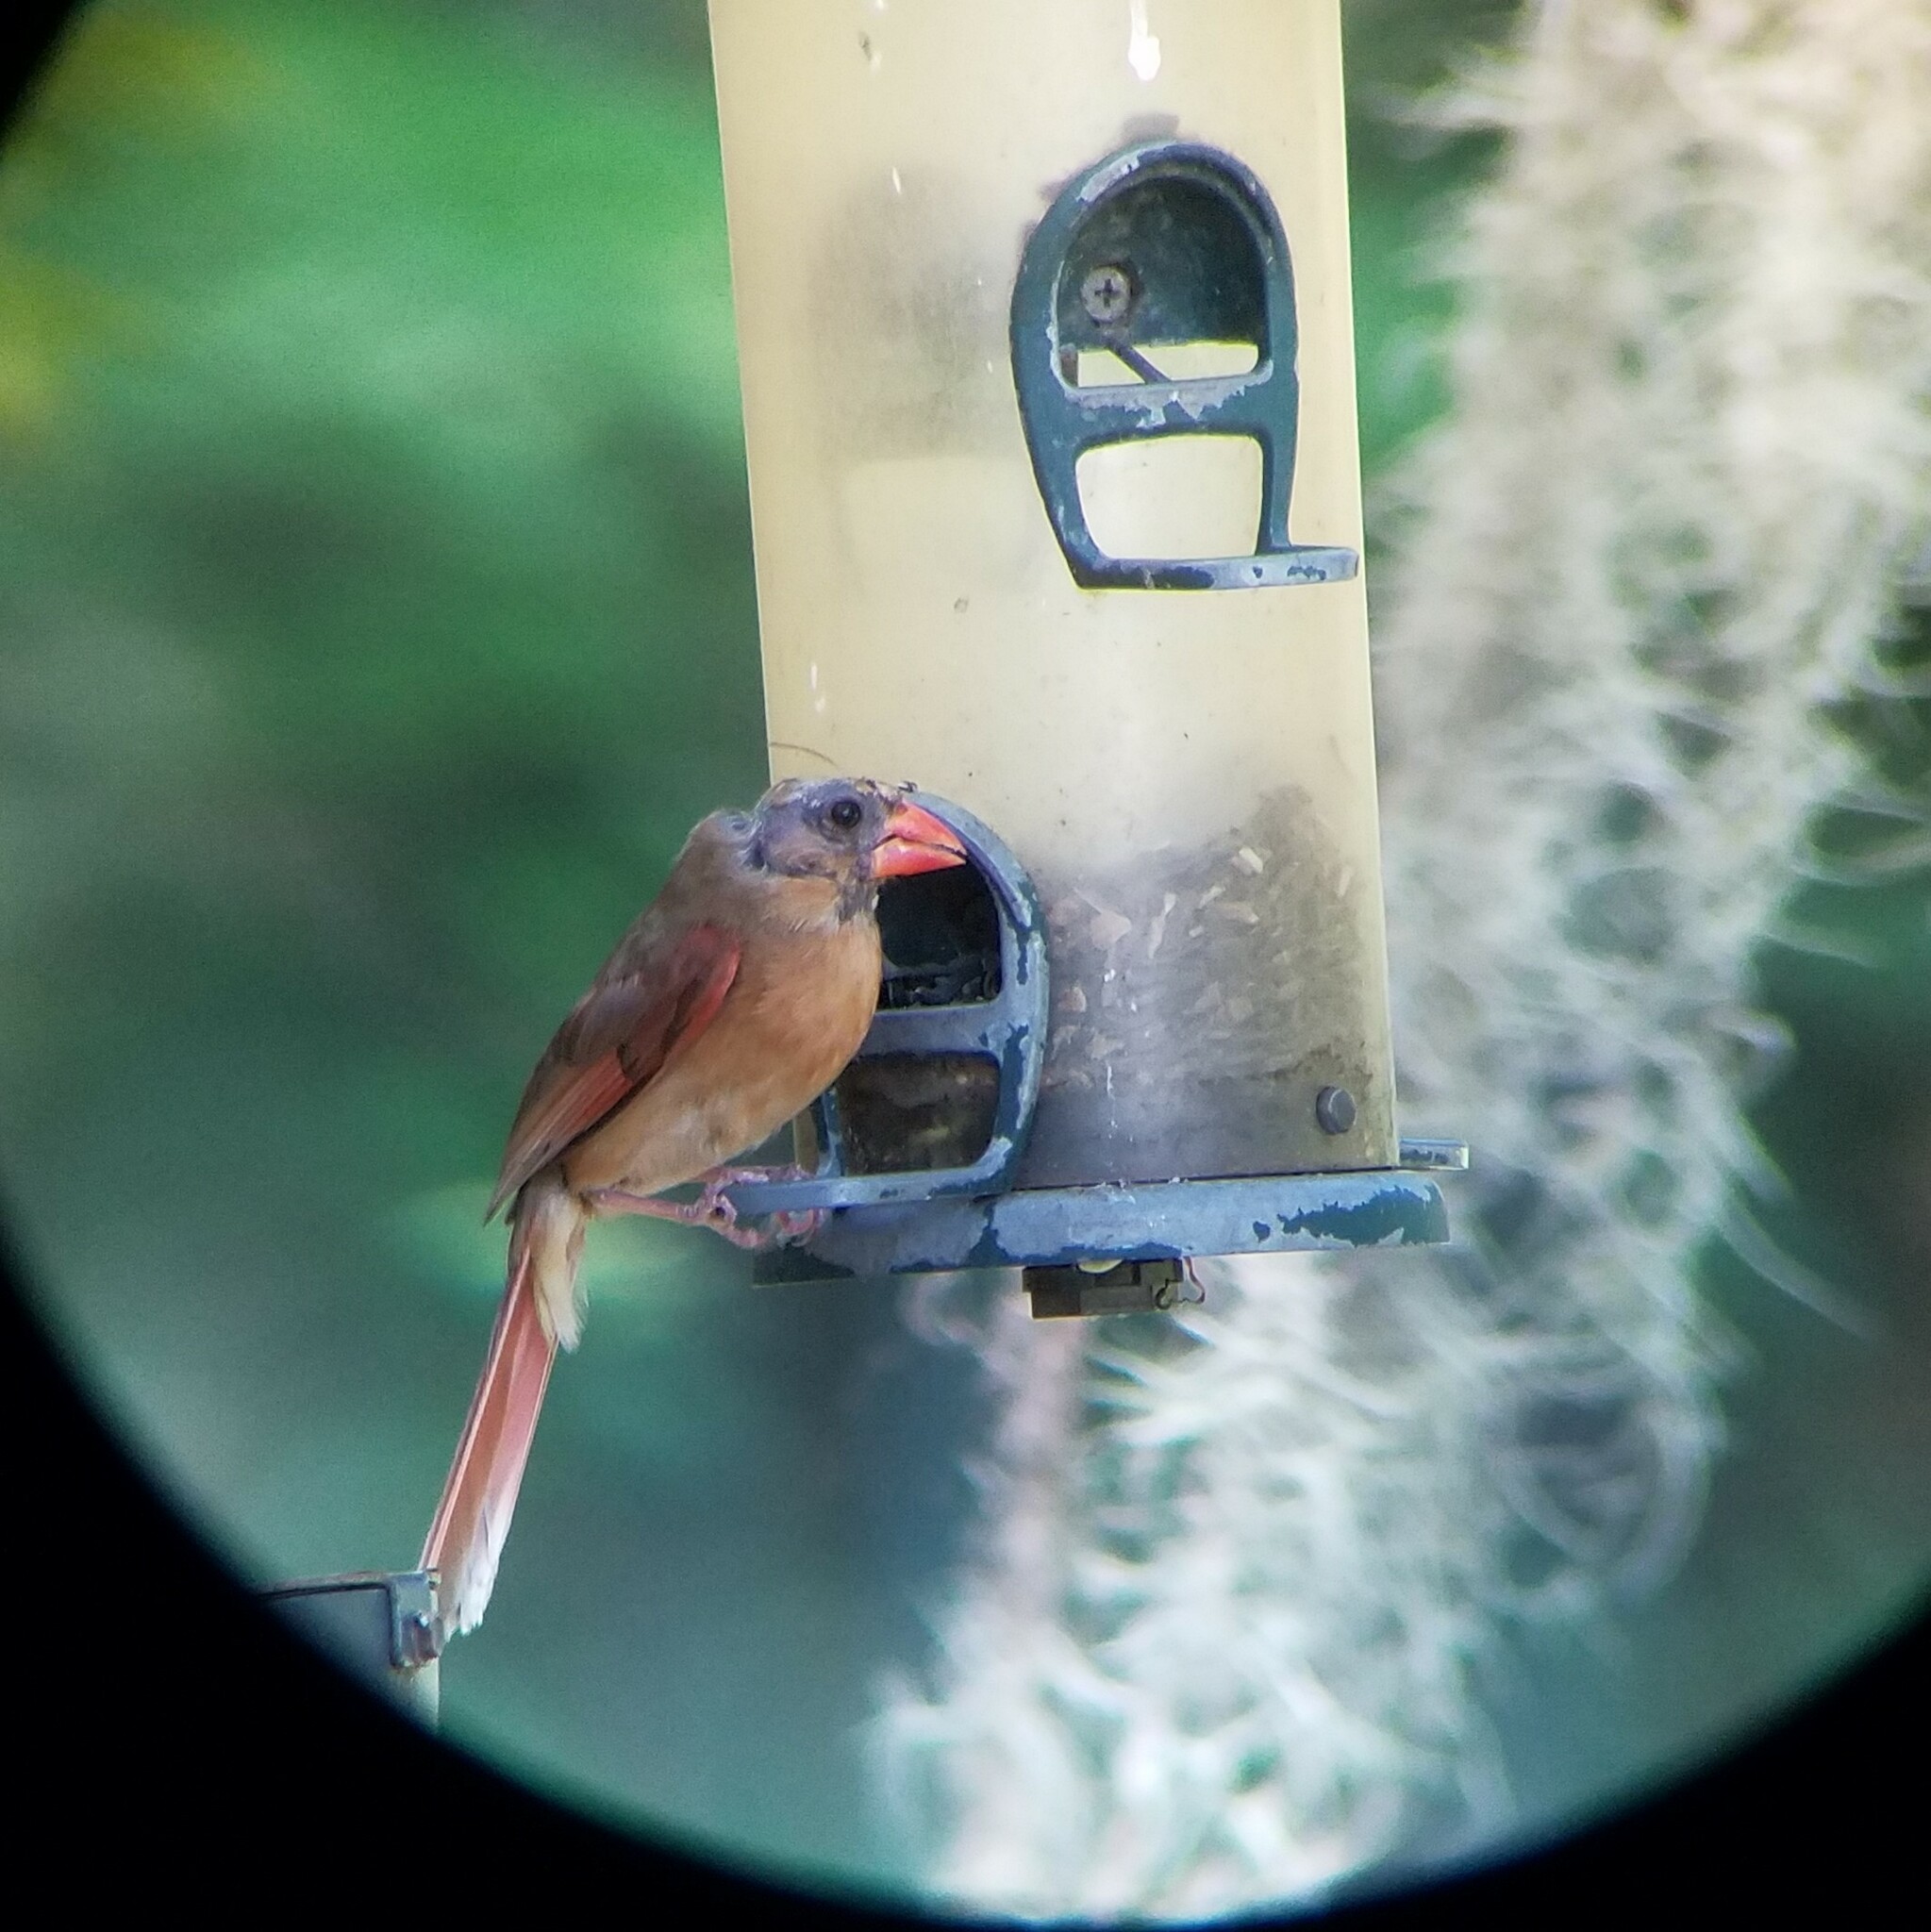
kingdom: Animalia
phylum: Chordata
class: Aves
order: Passeriformes
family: Cardinalidae
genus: Cardinalis
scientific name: Cardinalis cardinalis
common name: Northern cardinal
